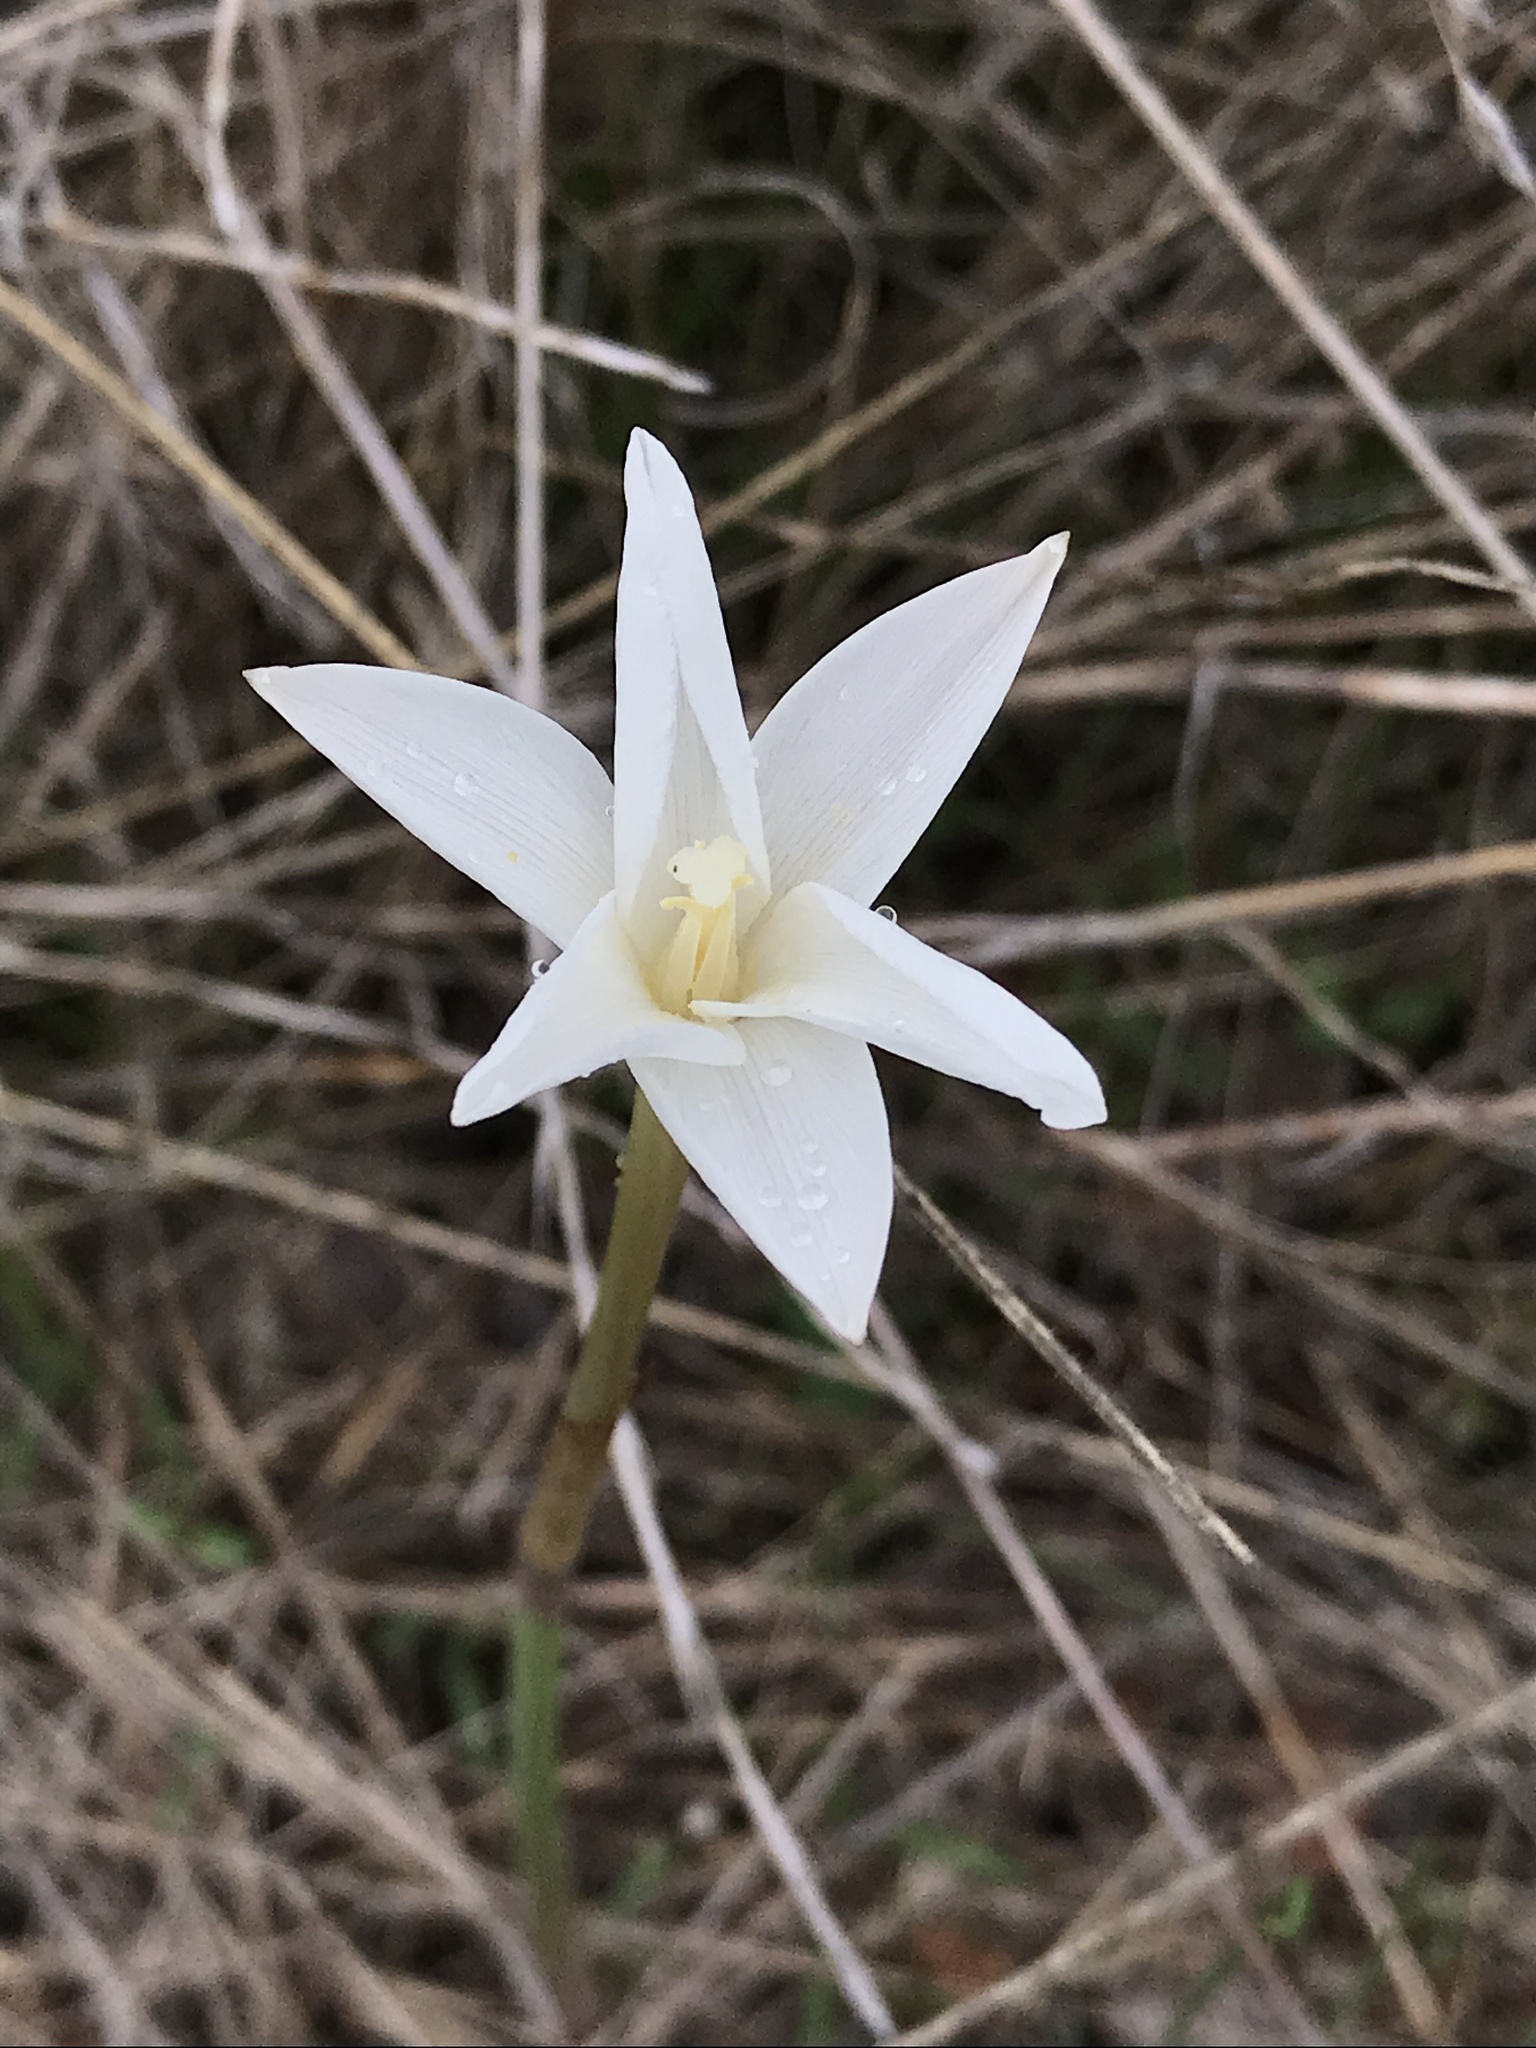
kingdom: Plantae
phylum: Tracheophyta
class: Liliopsida
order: Asparagales
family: Amaryllidaceae
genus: Zephyranthes
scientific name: Zephyranthes chlorosolen
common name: Evening rain-lily
